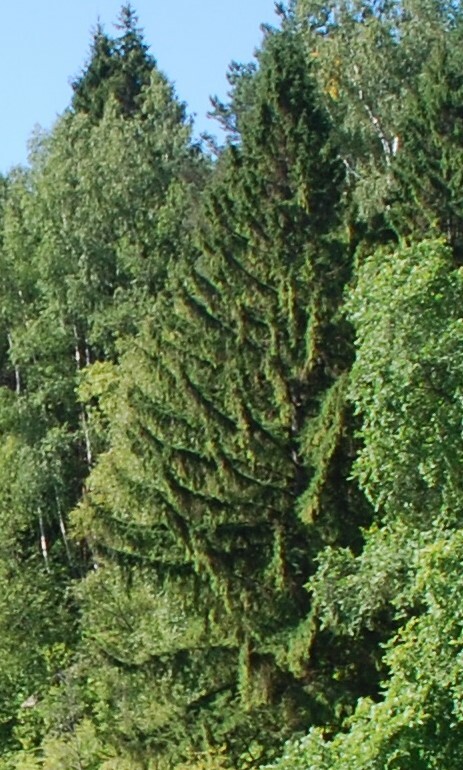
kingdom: Plantae
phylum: Tracheophyta
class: Pinopsida
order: Pinales
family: Pinaceae
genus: Picea
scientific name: Picea abies
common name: Norway spruce
